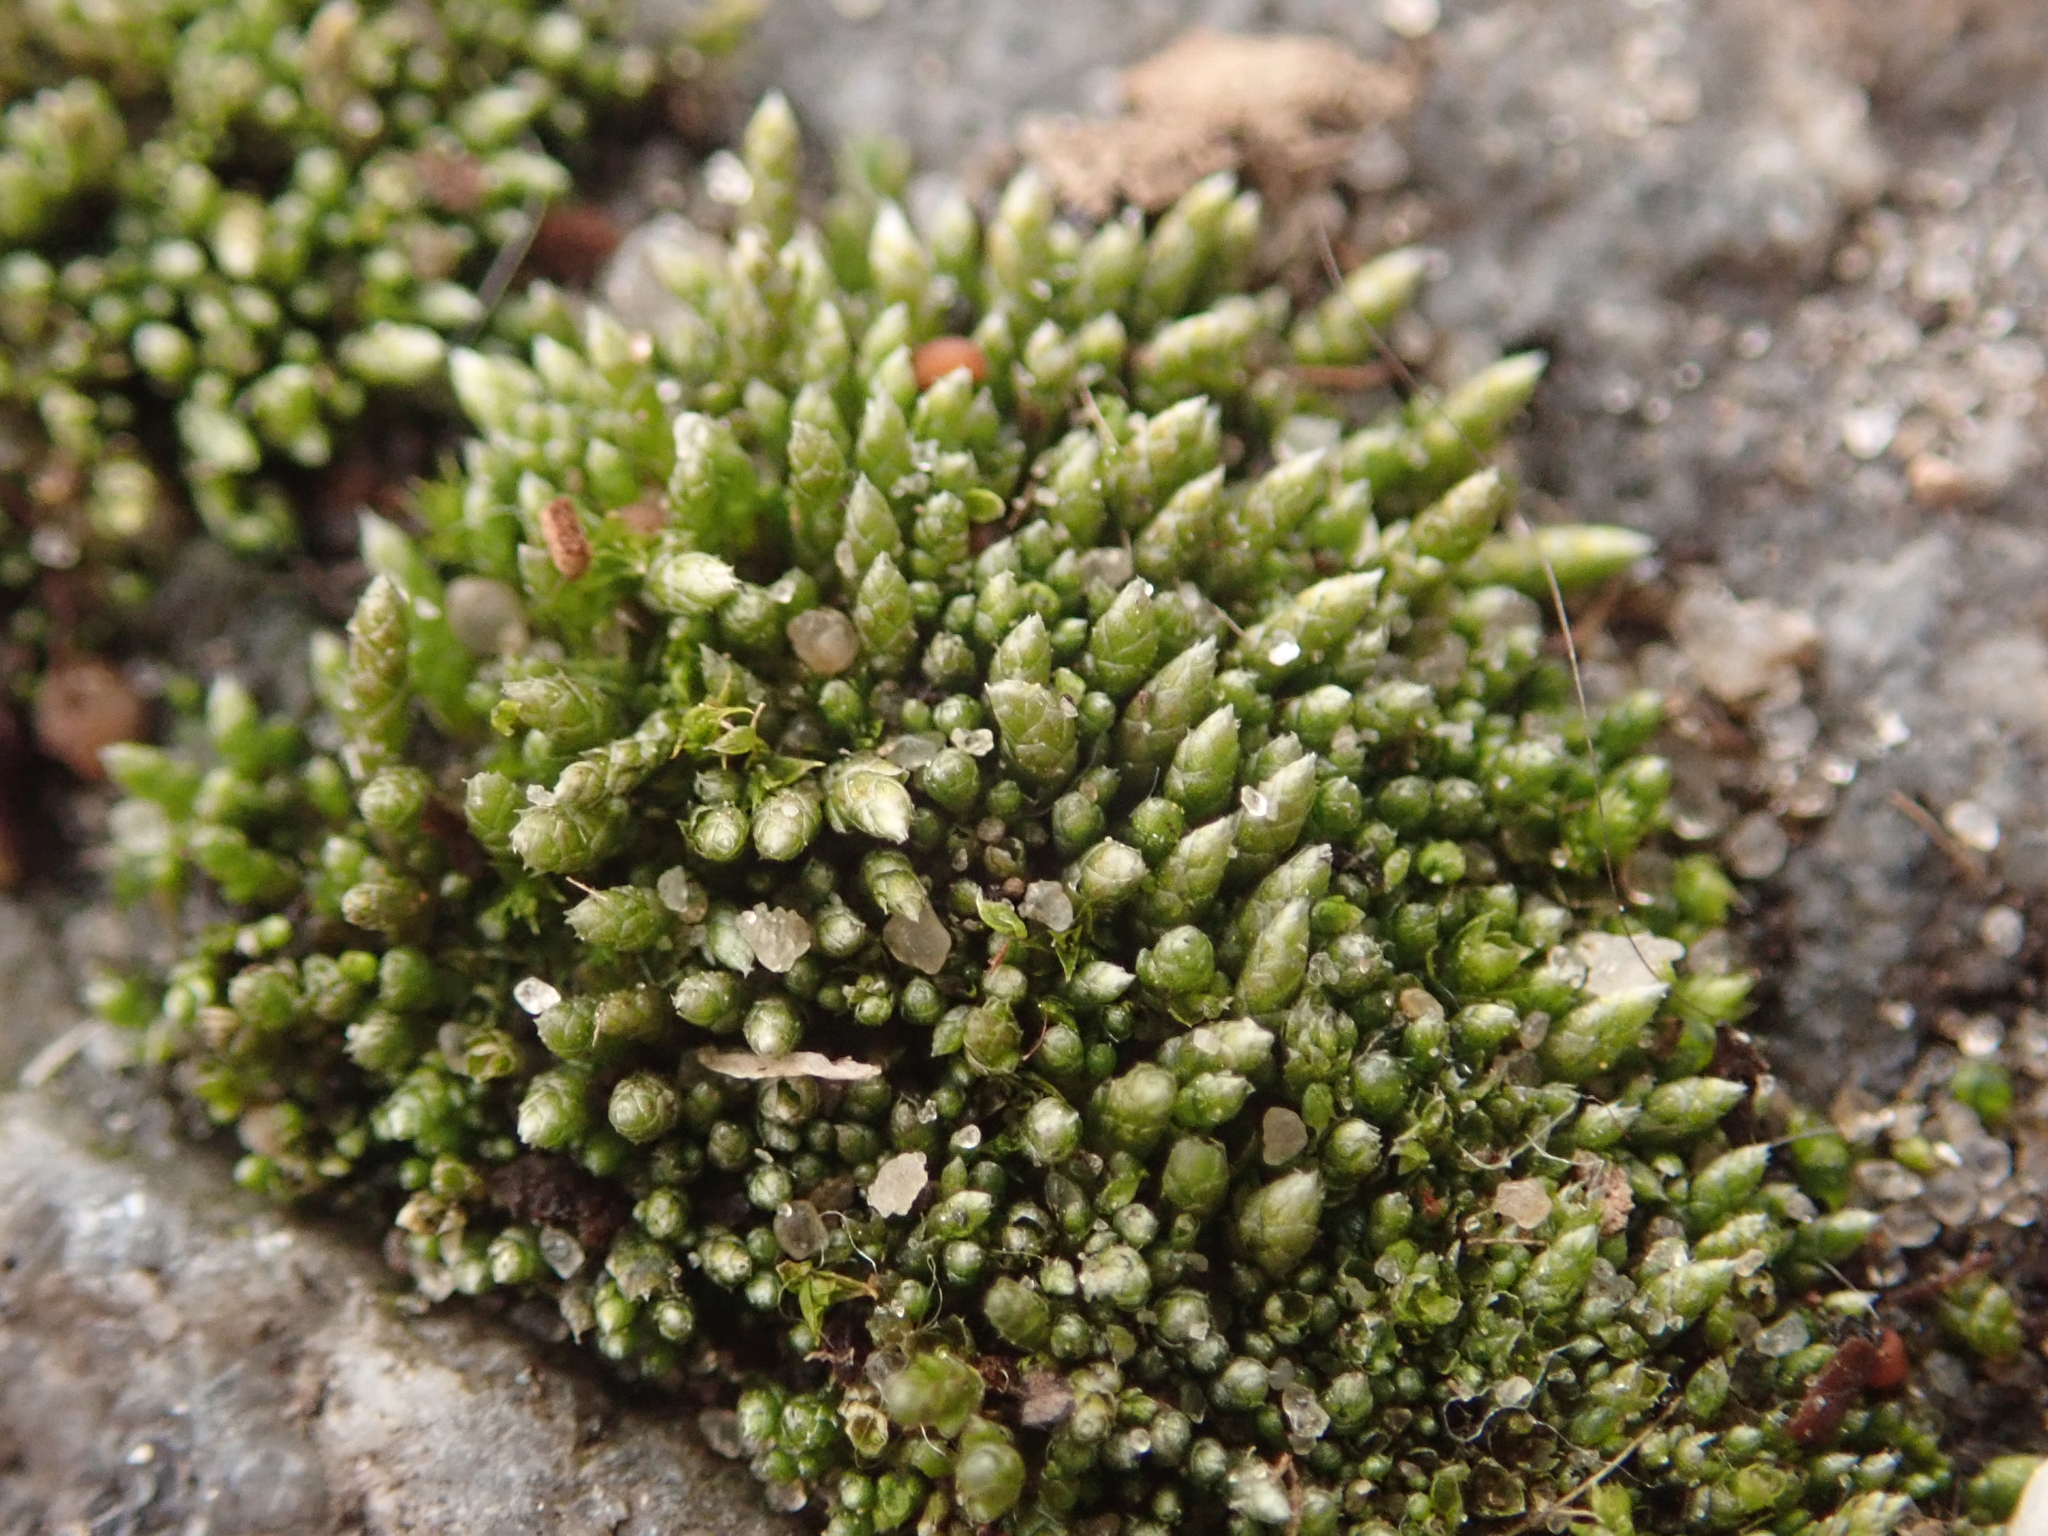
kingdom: Plantae
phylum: Bryophyta
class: Bryopsida
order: Bryales
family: Bryaceae
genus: Bryum
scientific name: Bryum argenteum
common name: Silver-moss
